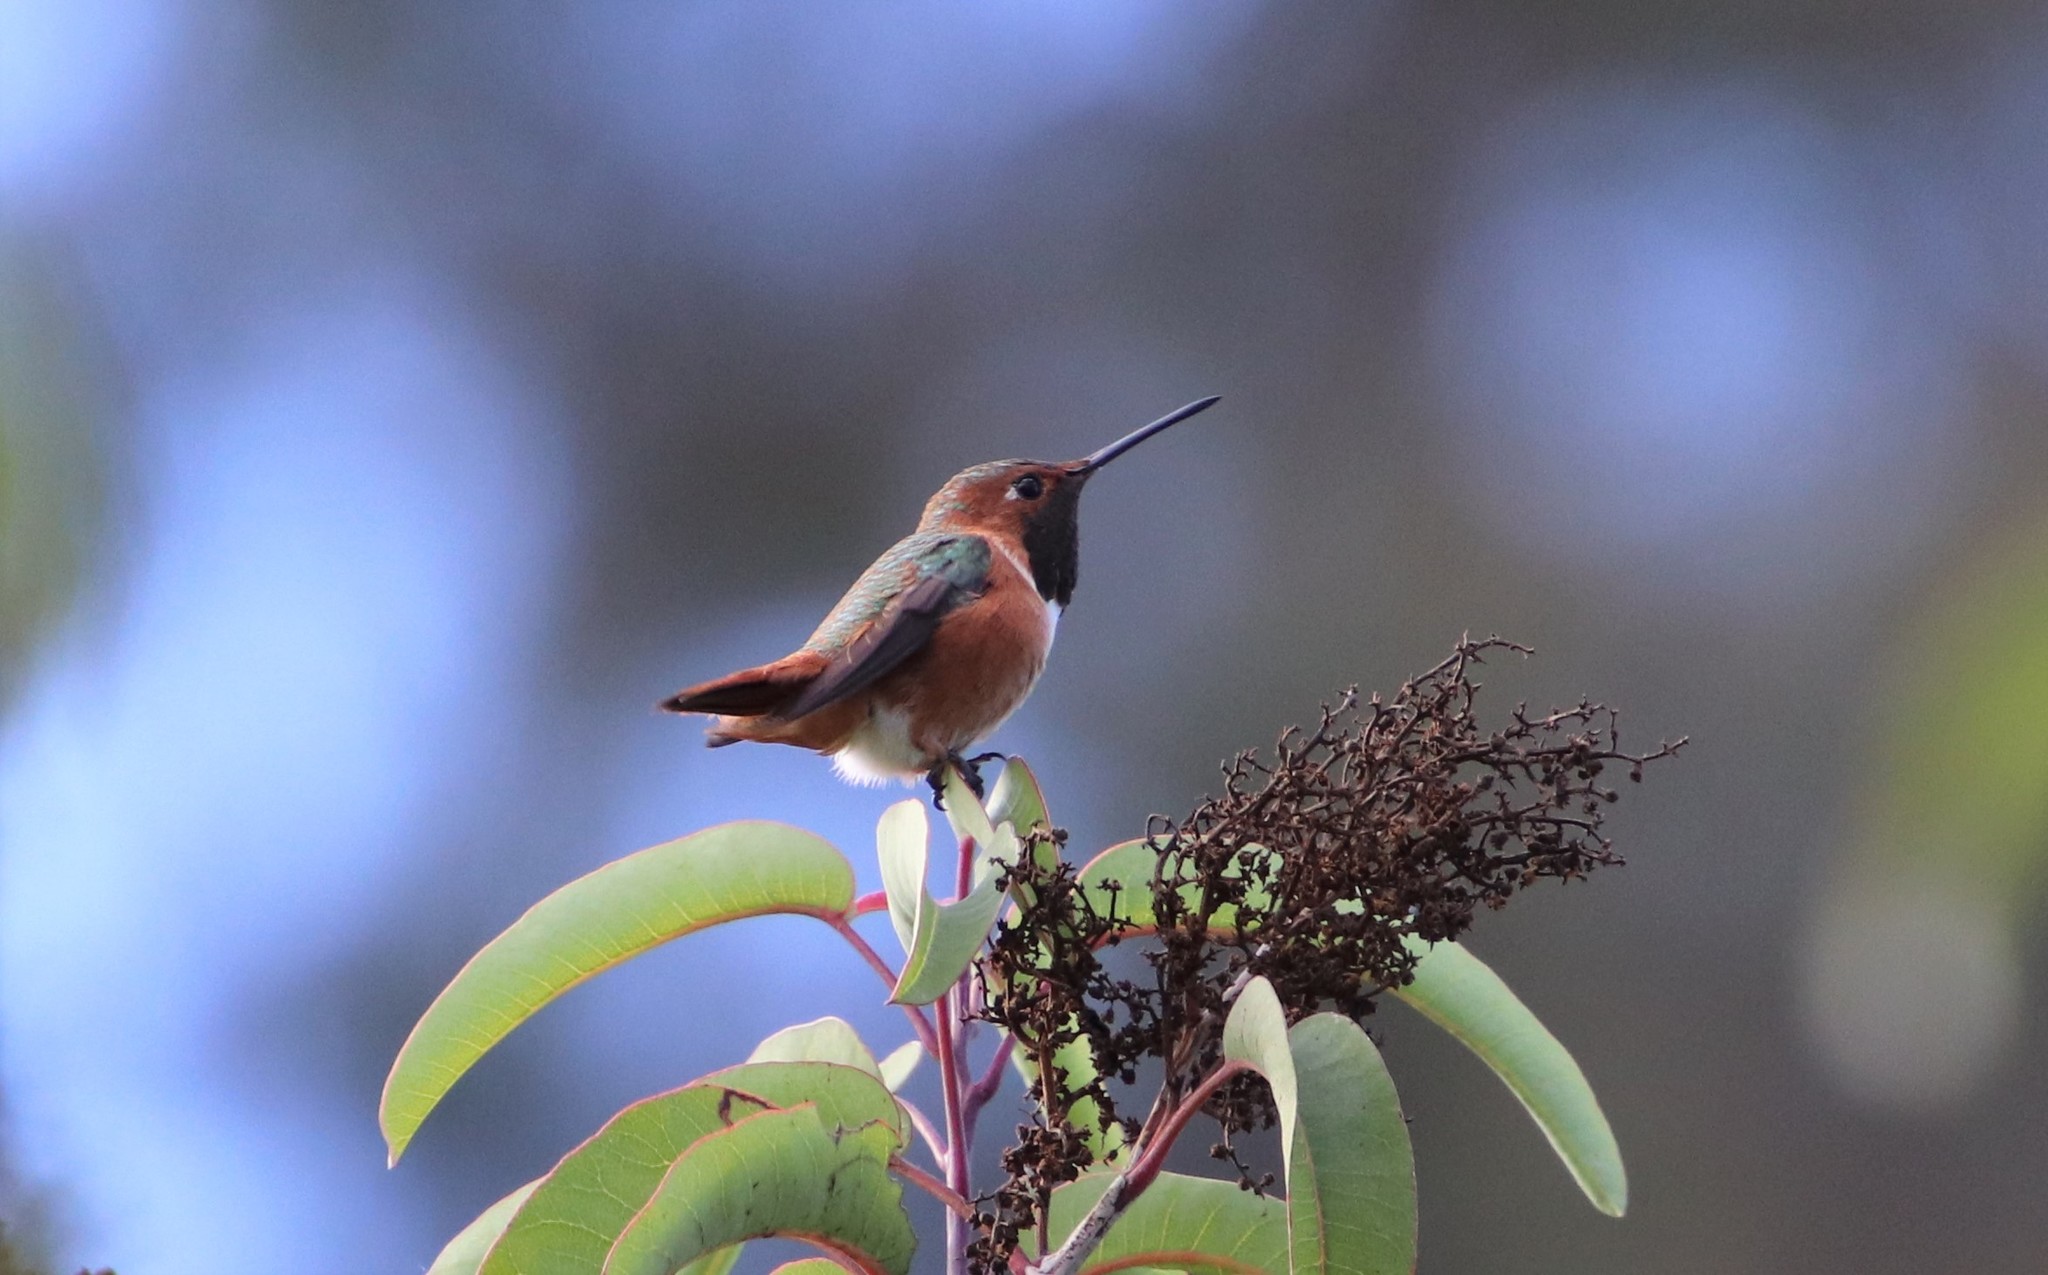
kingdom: Animalia
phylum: Chordata
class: Aves
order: Apodiformes
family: Trochilidae
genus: Selasphorus
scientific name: Selasphorus
